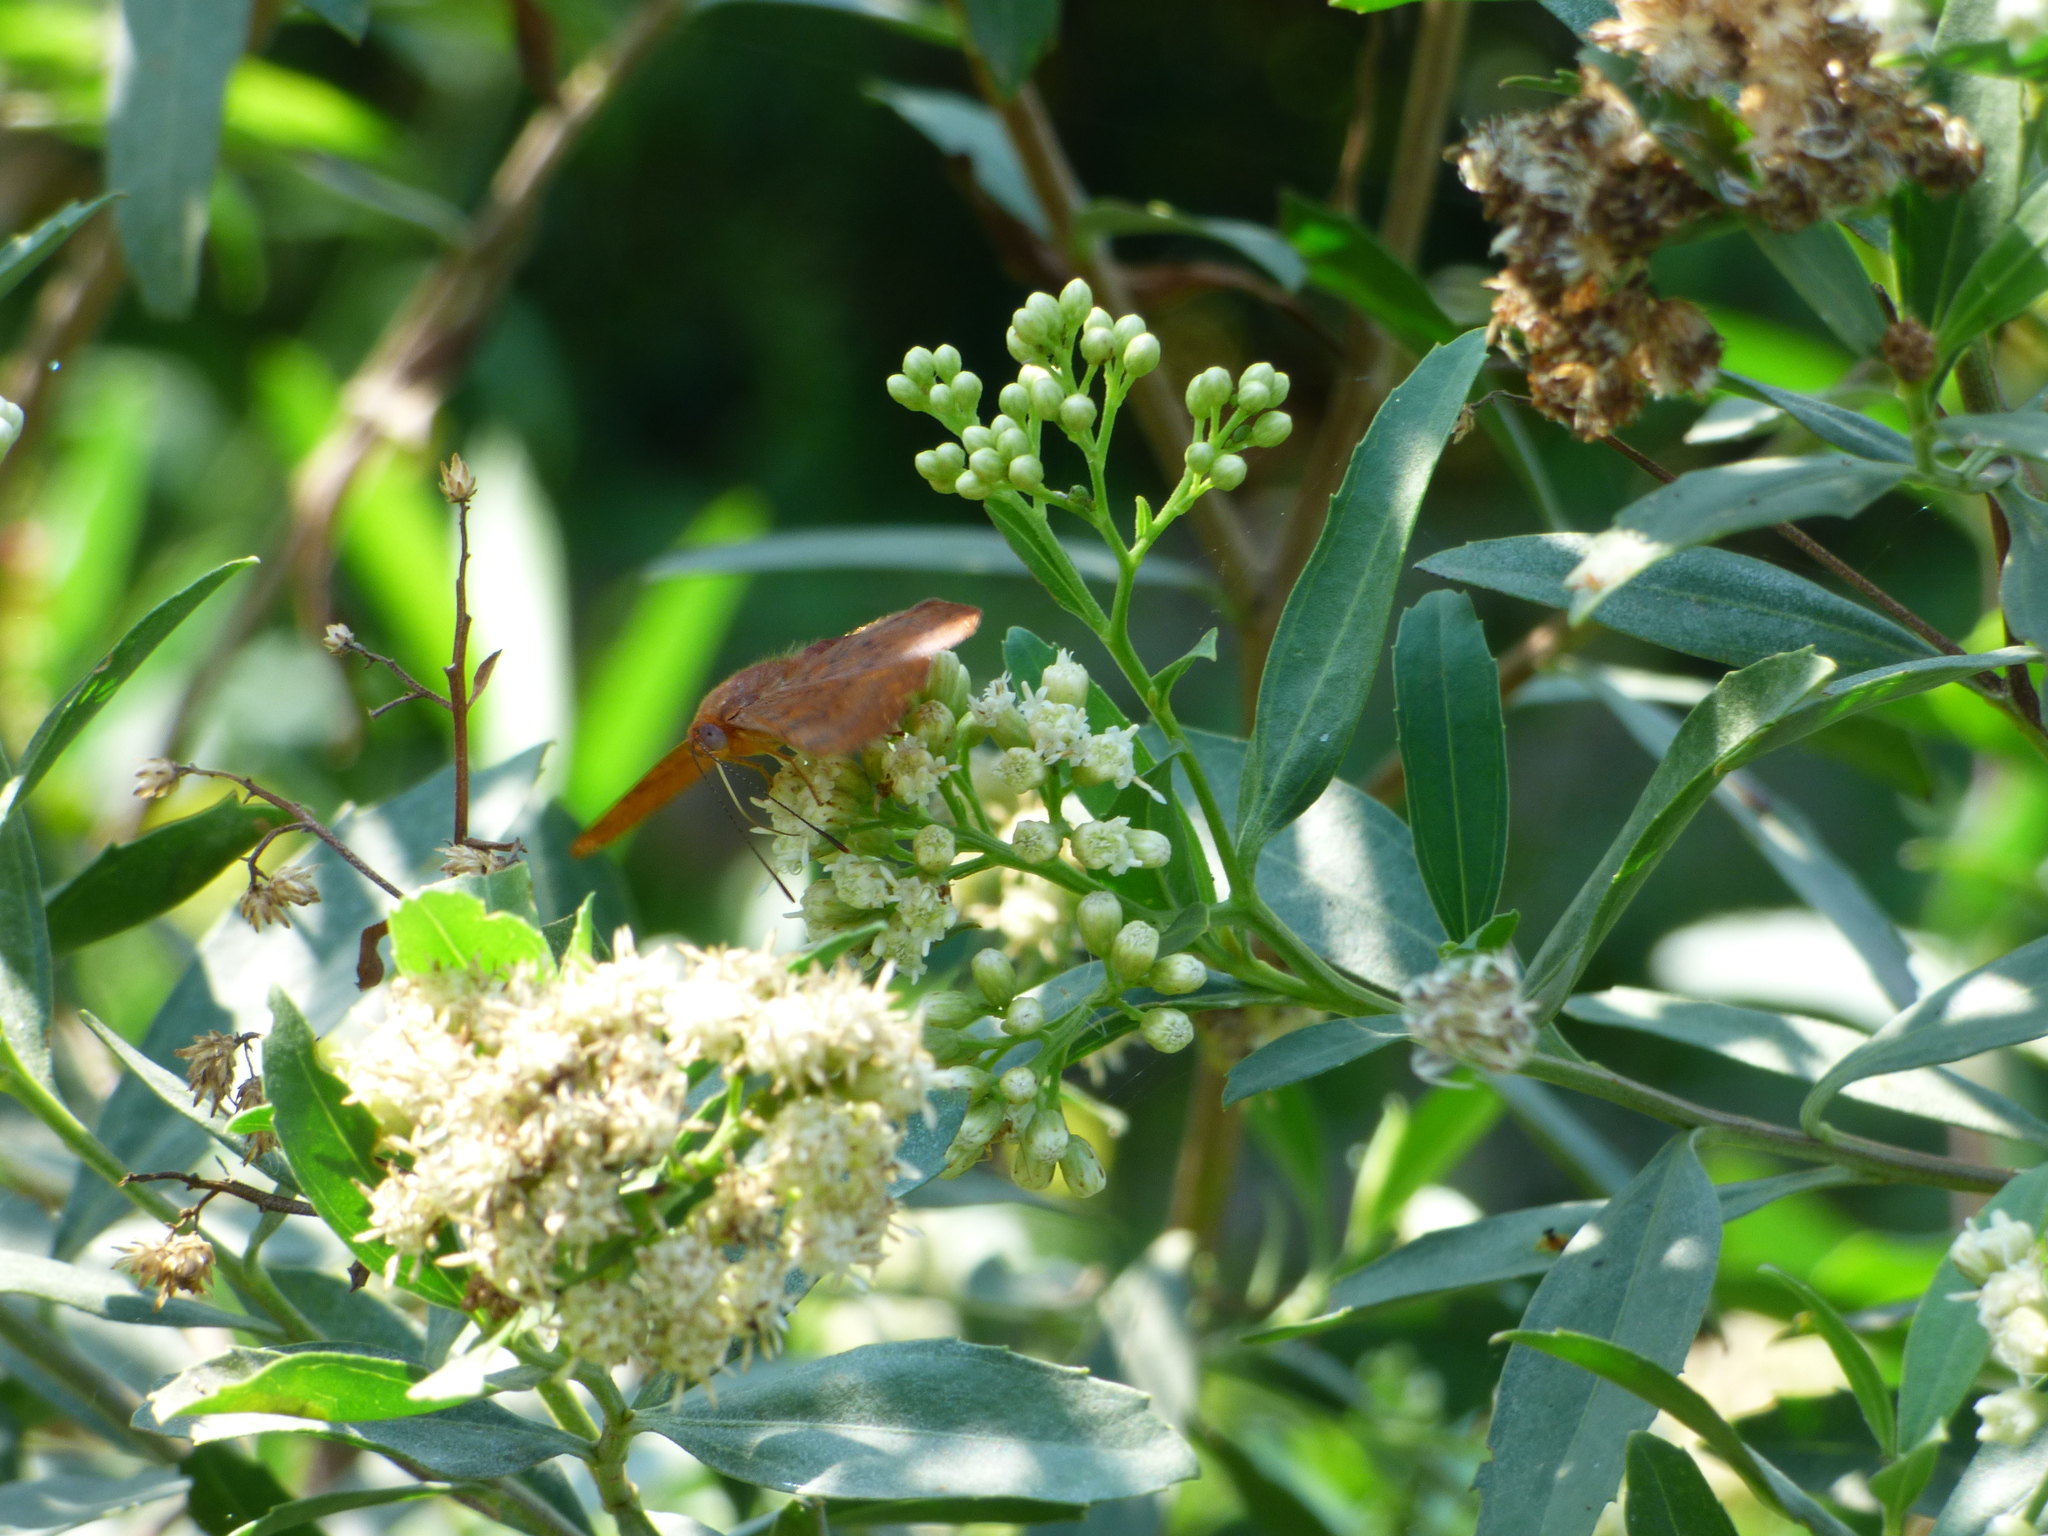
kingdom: Animalia
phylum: Arthropoda
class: Insecta
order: Lepidoptera
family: Lycaenidae
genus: Emesis
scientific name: Emesis russula
